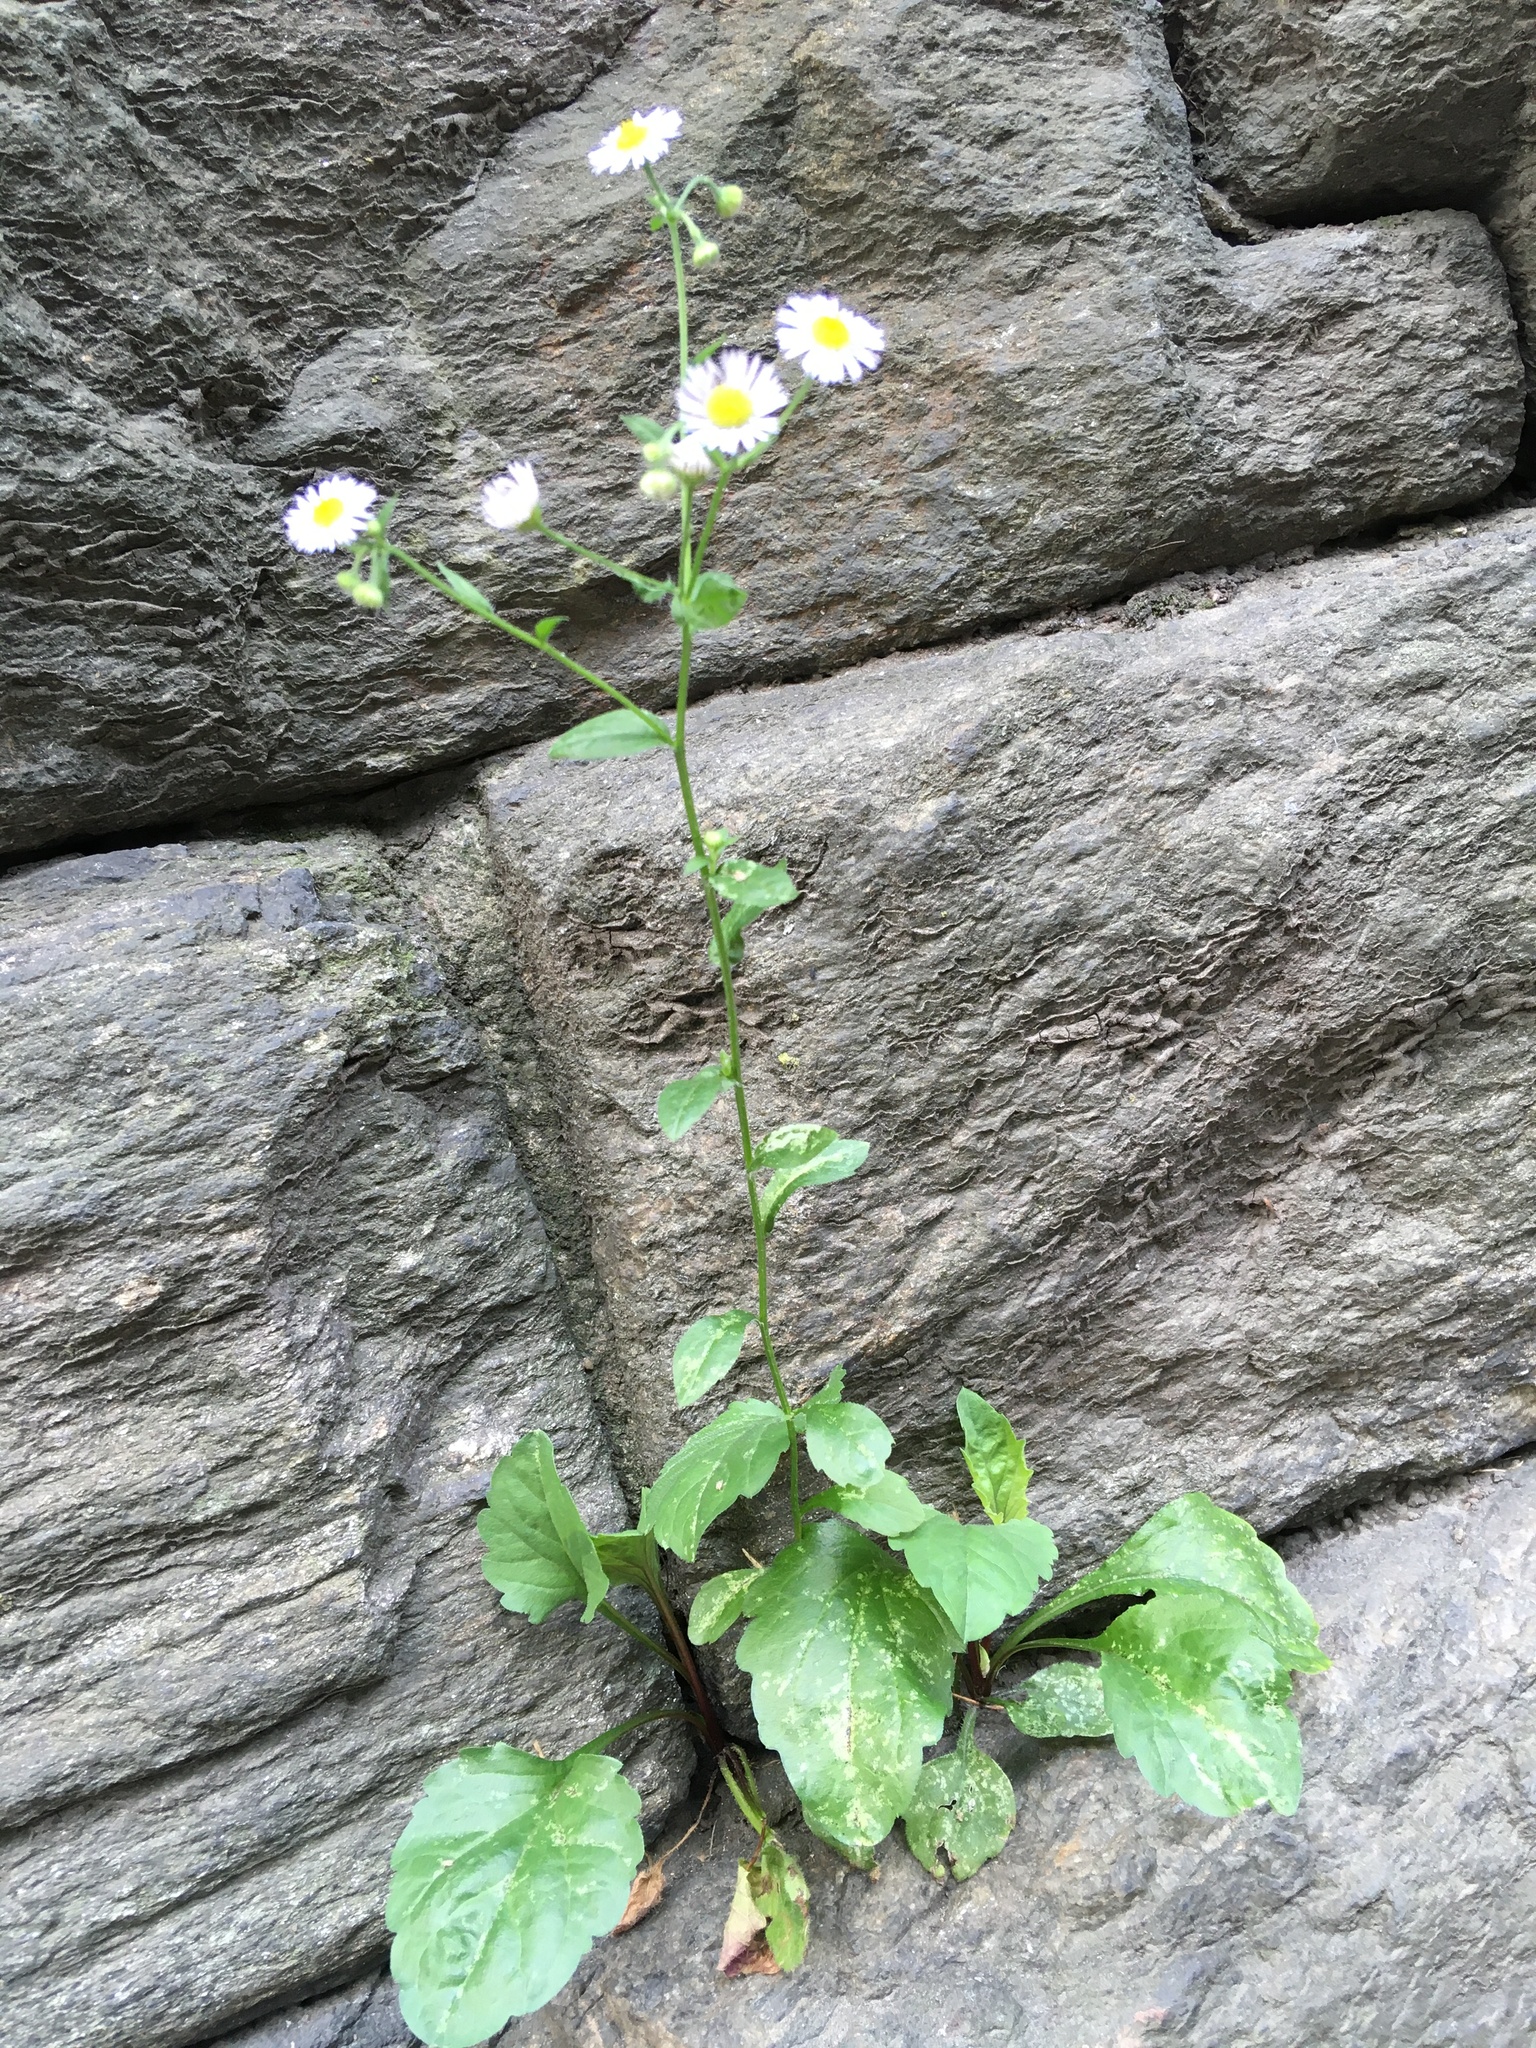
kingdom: Plantae
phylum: Tracheophyta
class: Magnoliopsida
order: Asterales
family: Asteraceae
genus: Erigeron
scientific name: Erigeron strigosus
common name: Common eastern fleabane
